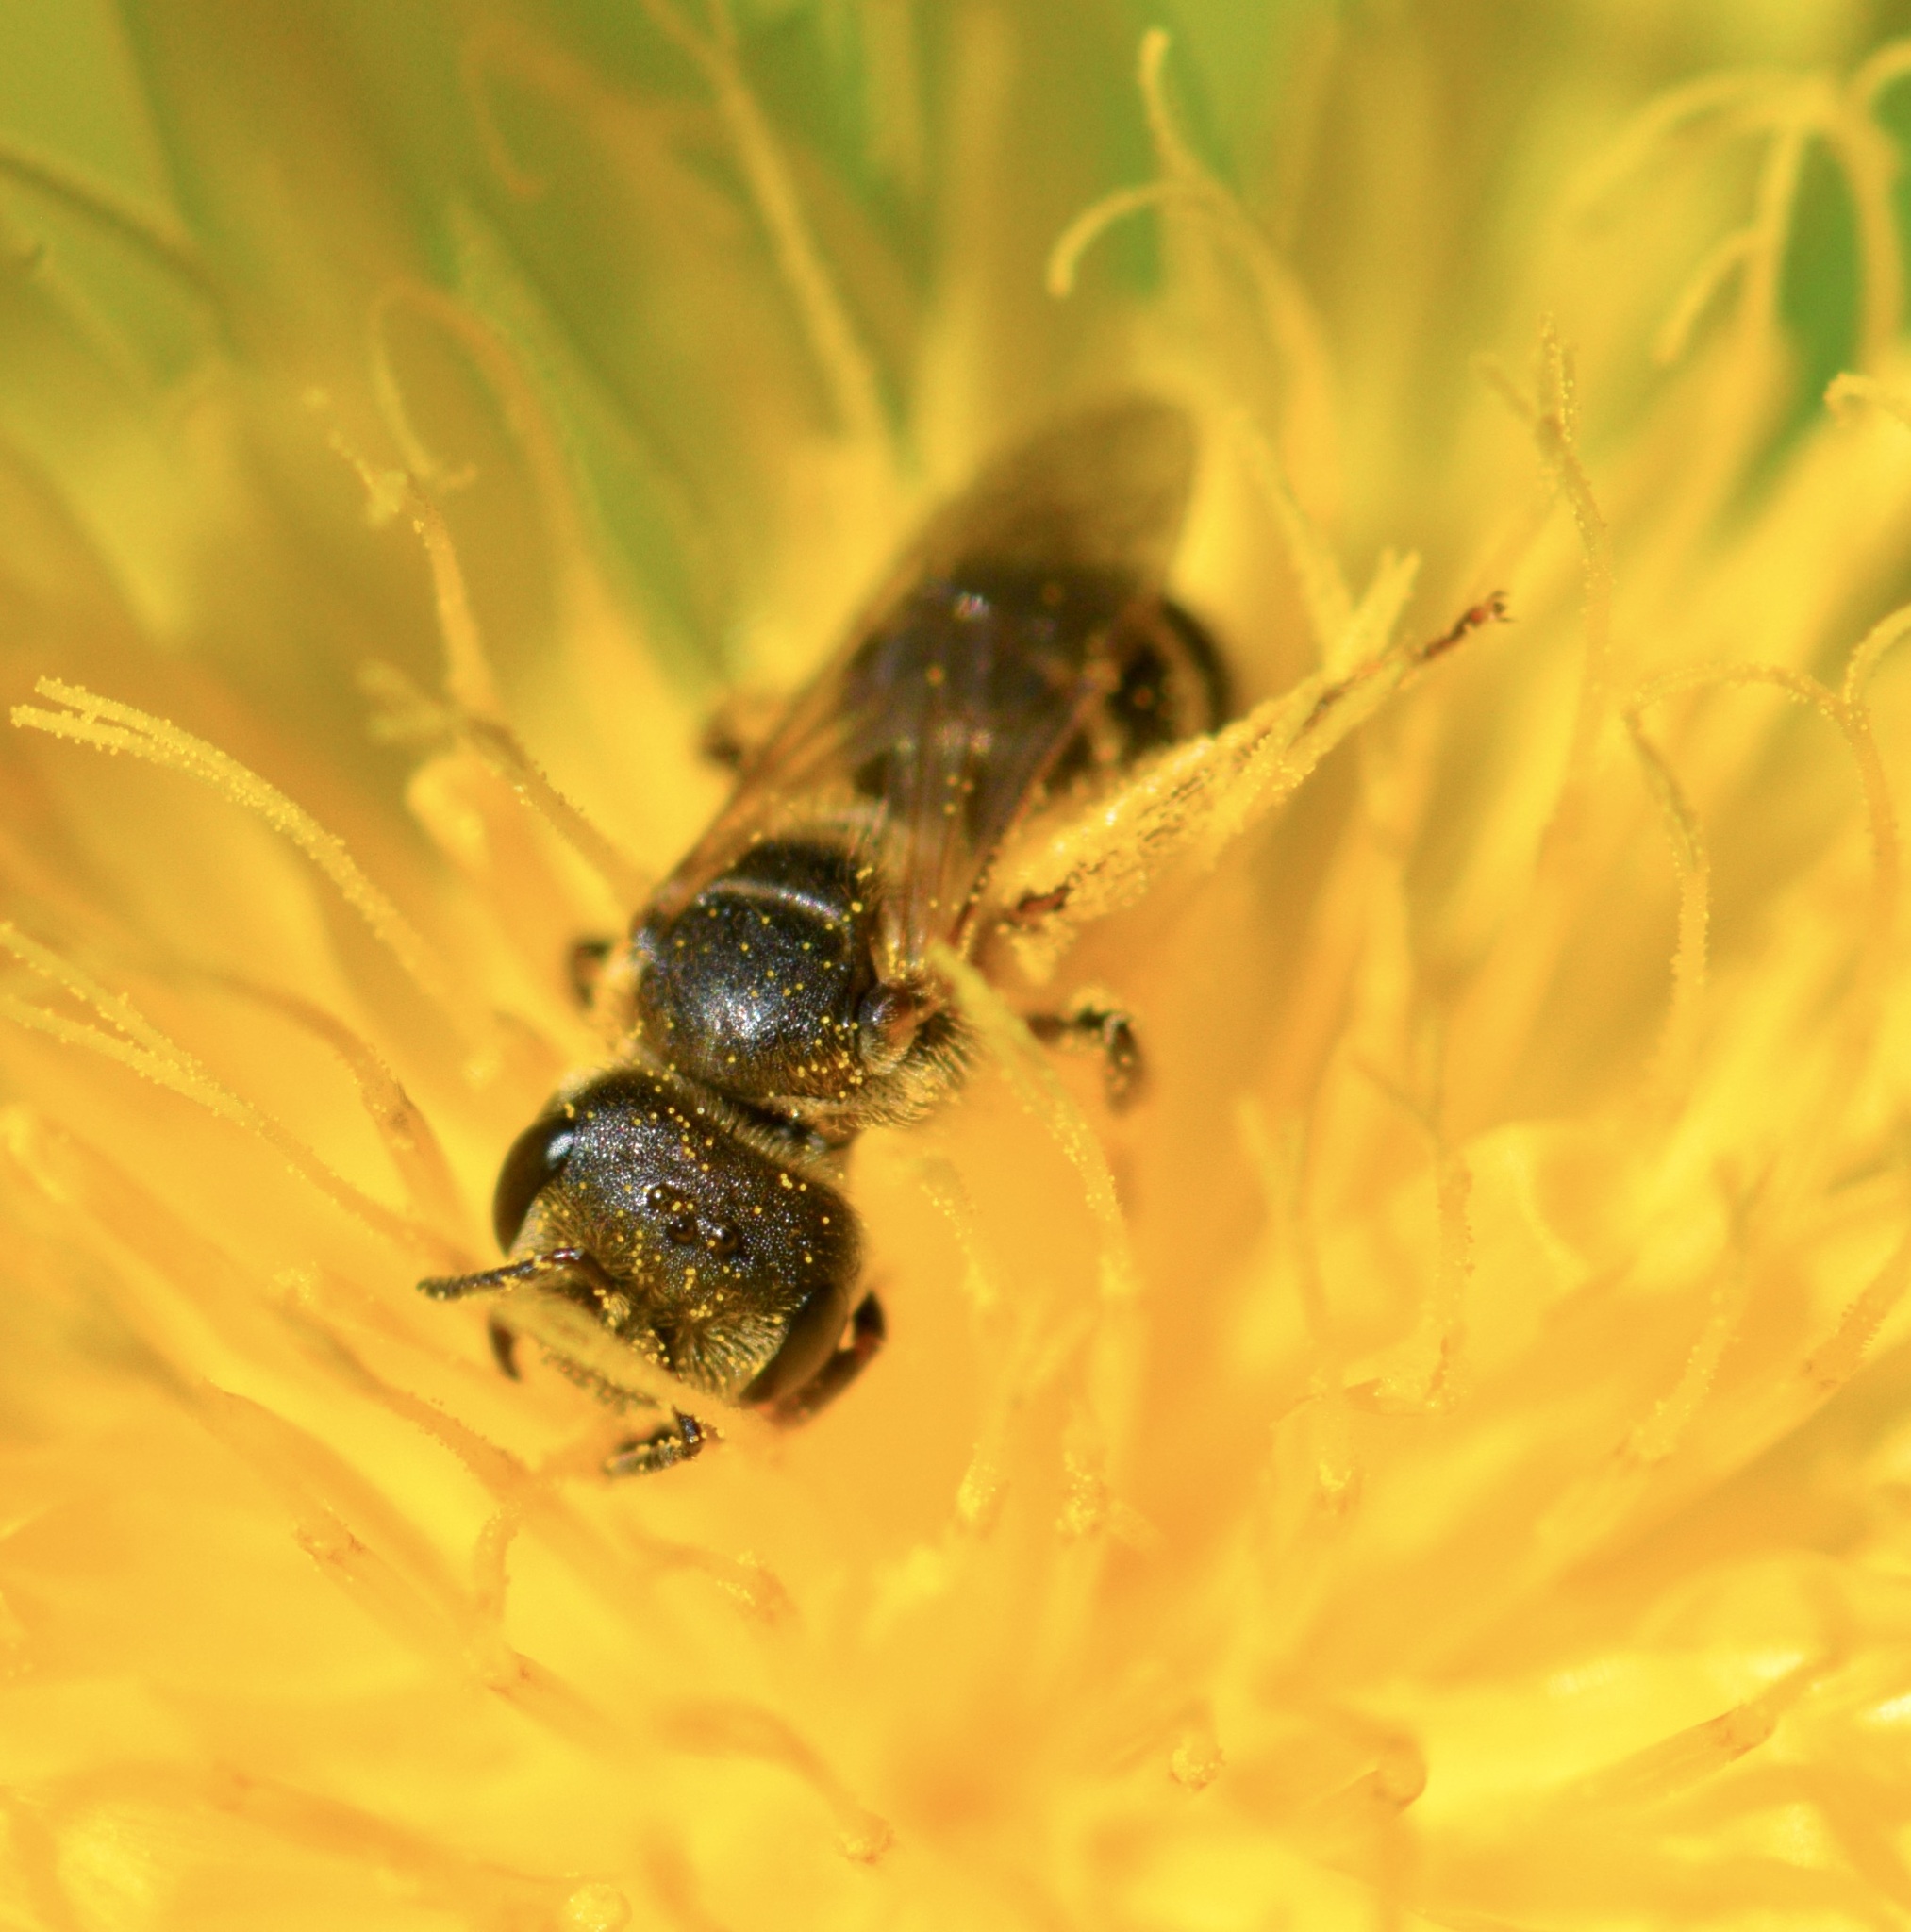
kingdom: Animalia
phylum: Arthropoda
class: Insecta
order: Hymenoptera
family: Halictidae
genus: Halictus
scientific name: Halictus ligatus
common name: Ligated furrow bee
